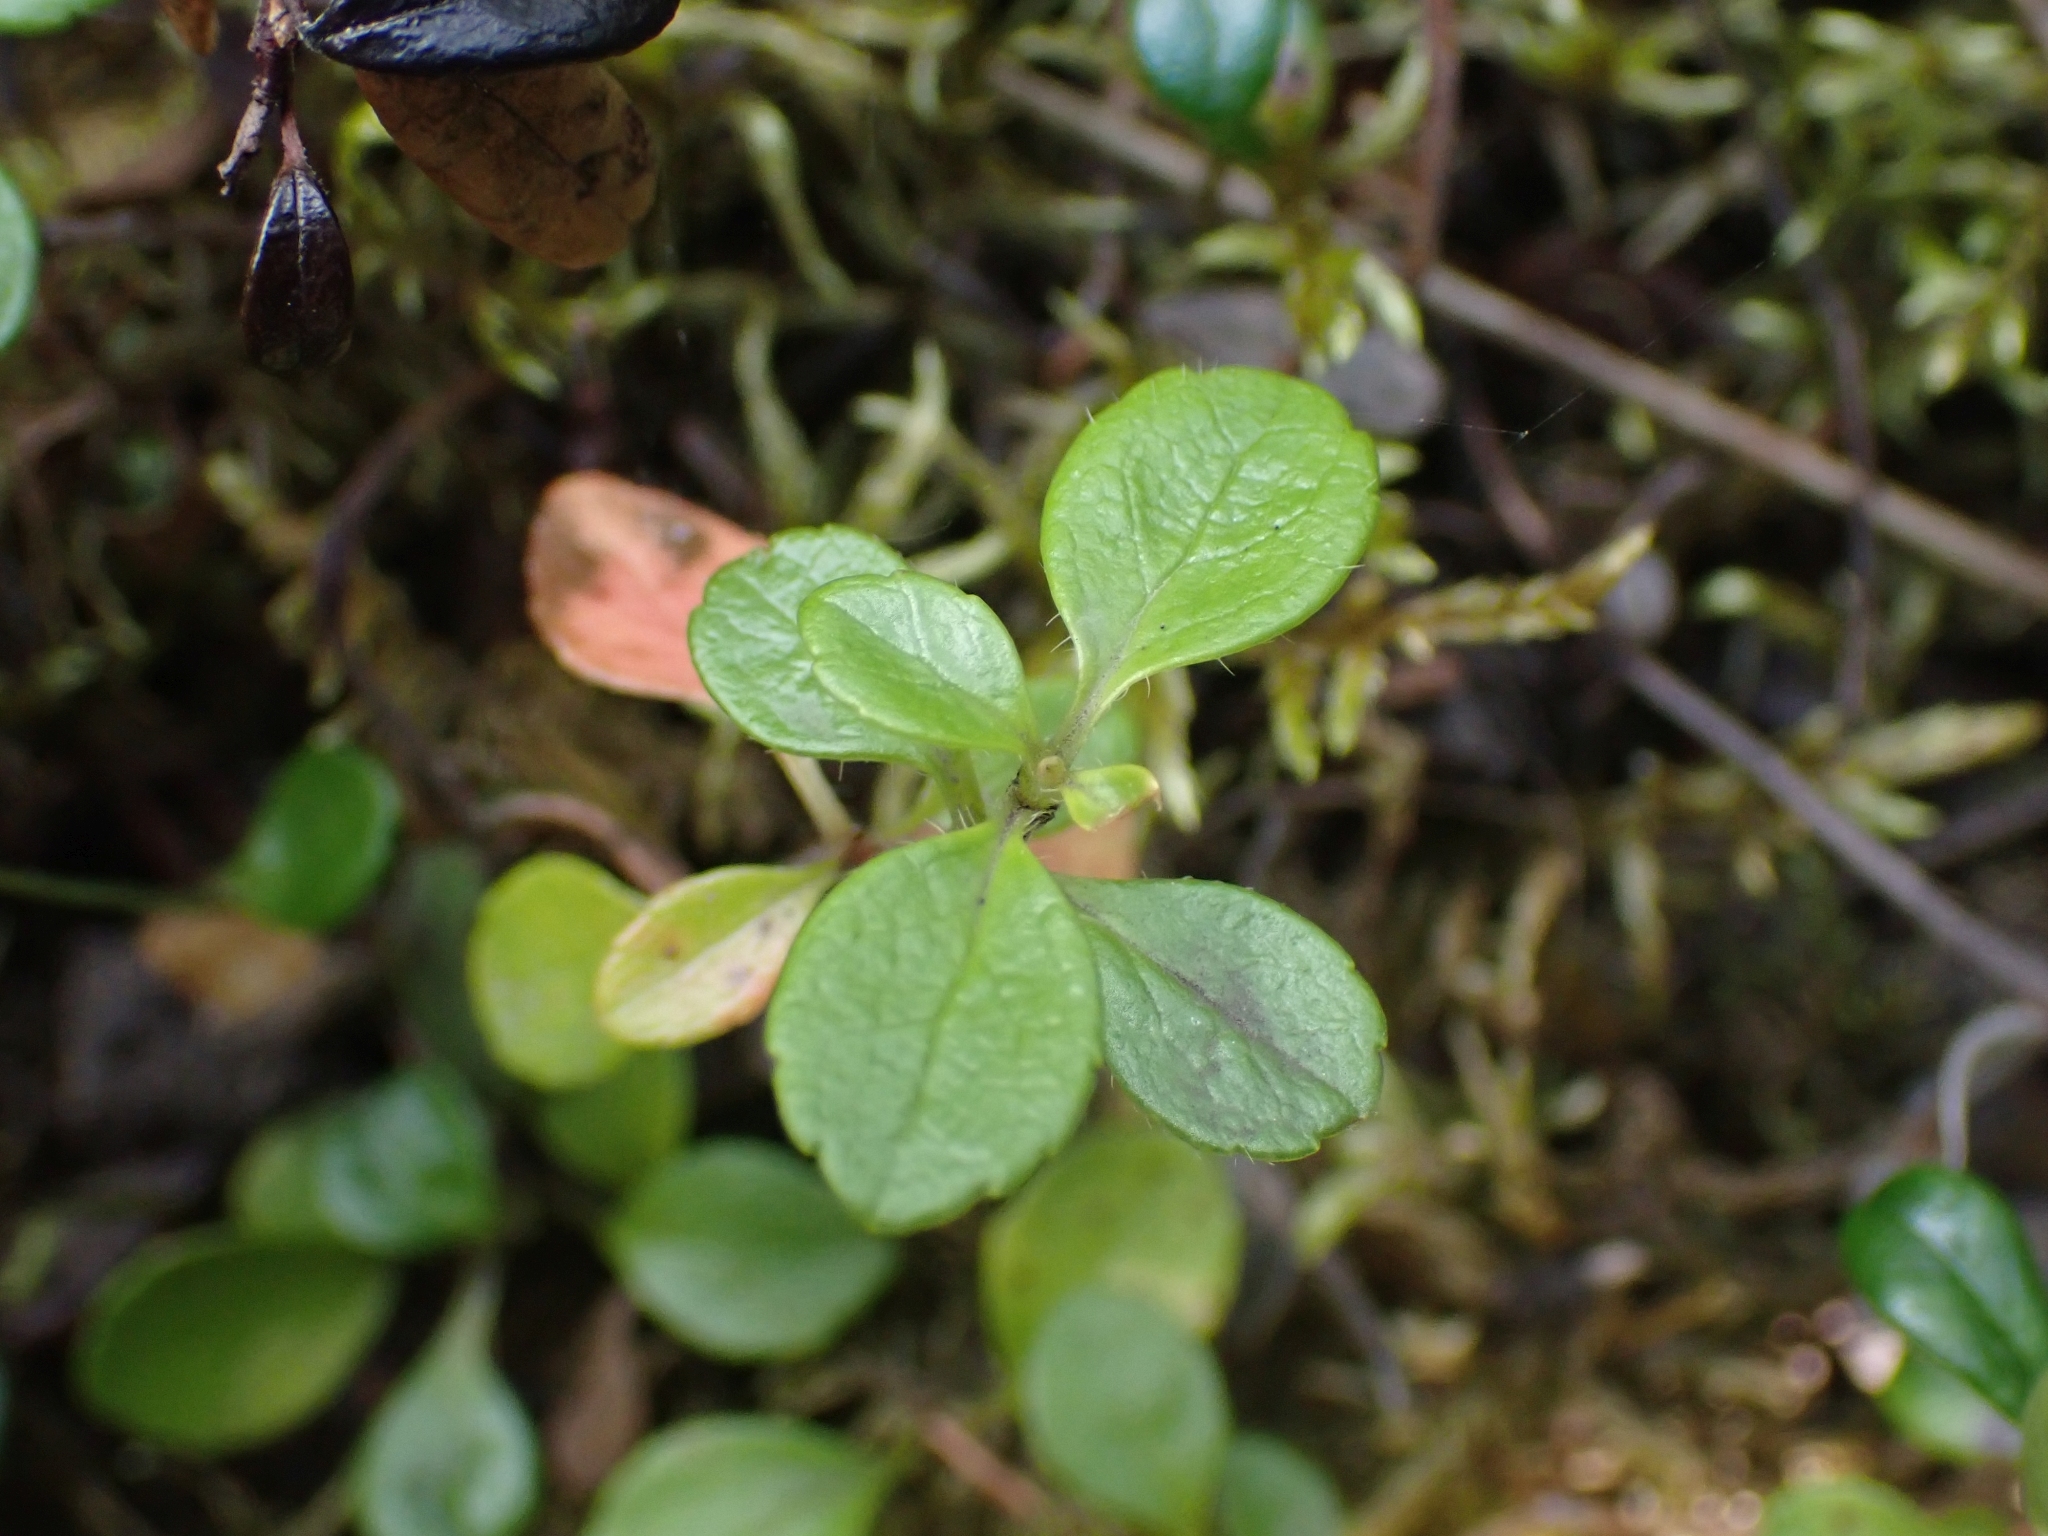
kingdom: Plantae
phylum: Tracheophyta
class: Magnoliopsida
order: Dipsacales
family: Caprifoliaceae
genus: Linnaea
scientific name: Linnaea borealis
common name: Twinflower
